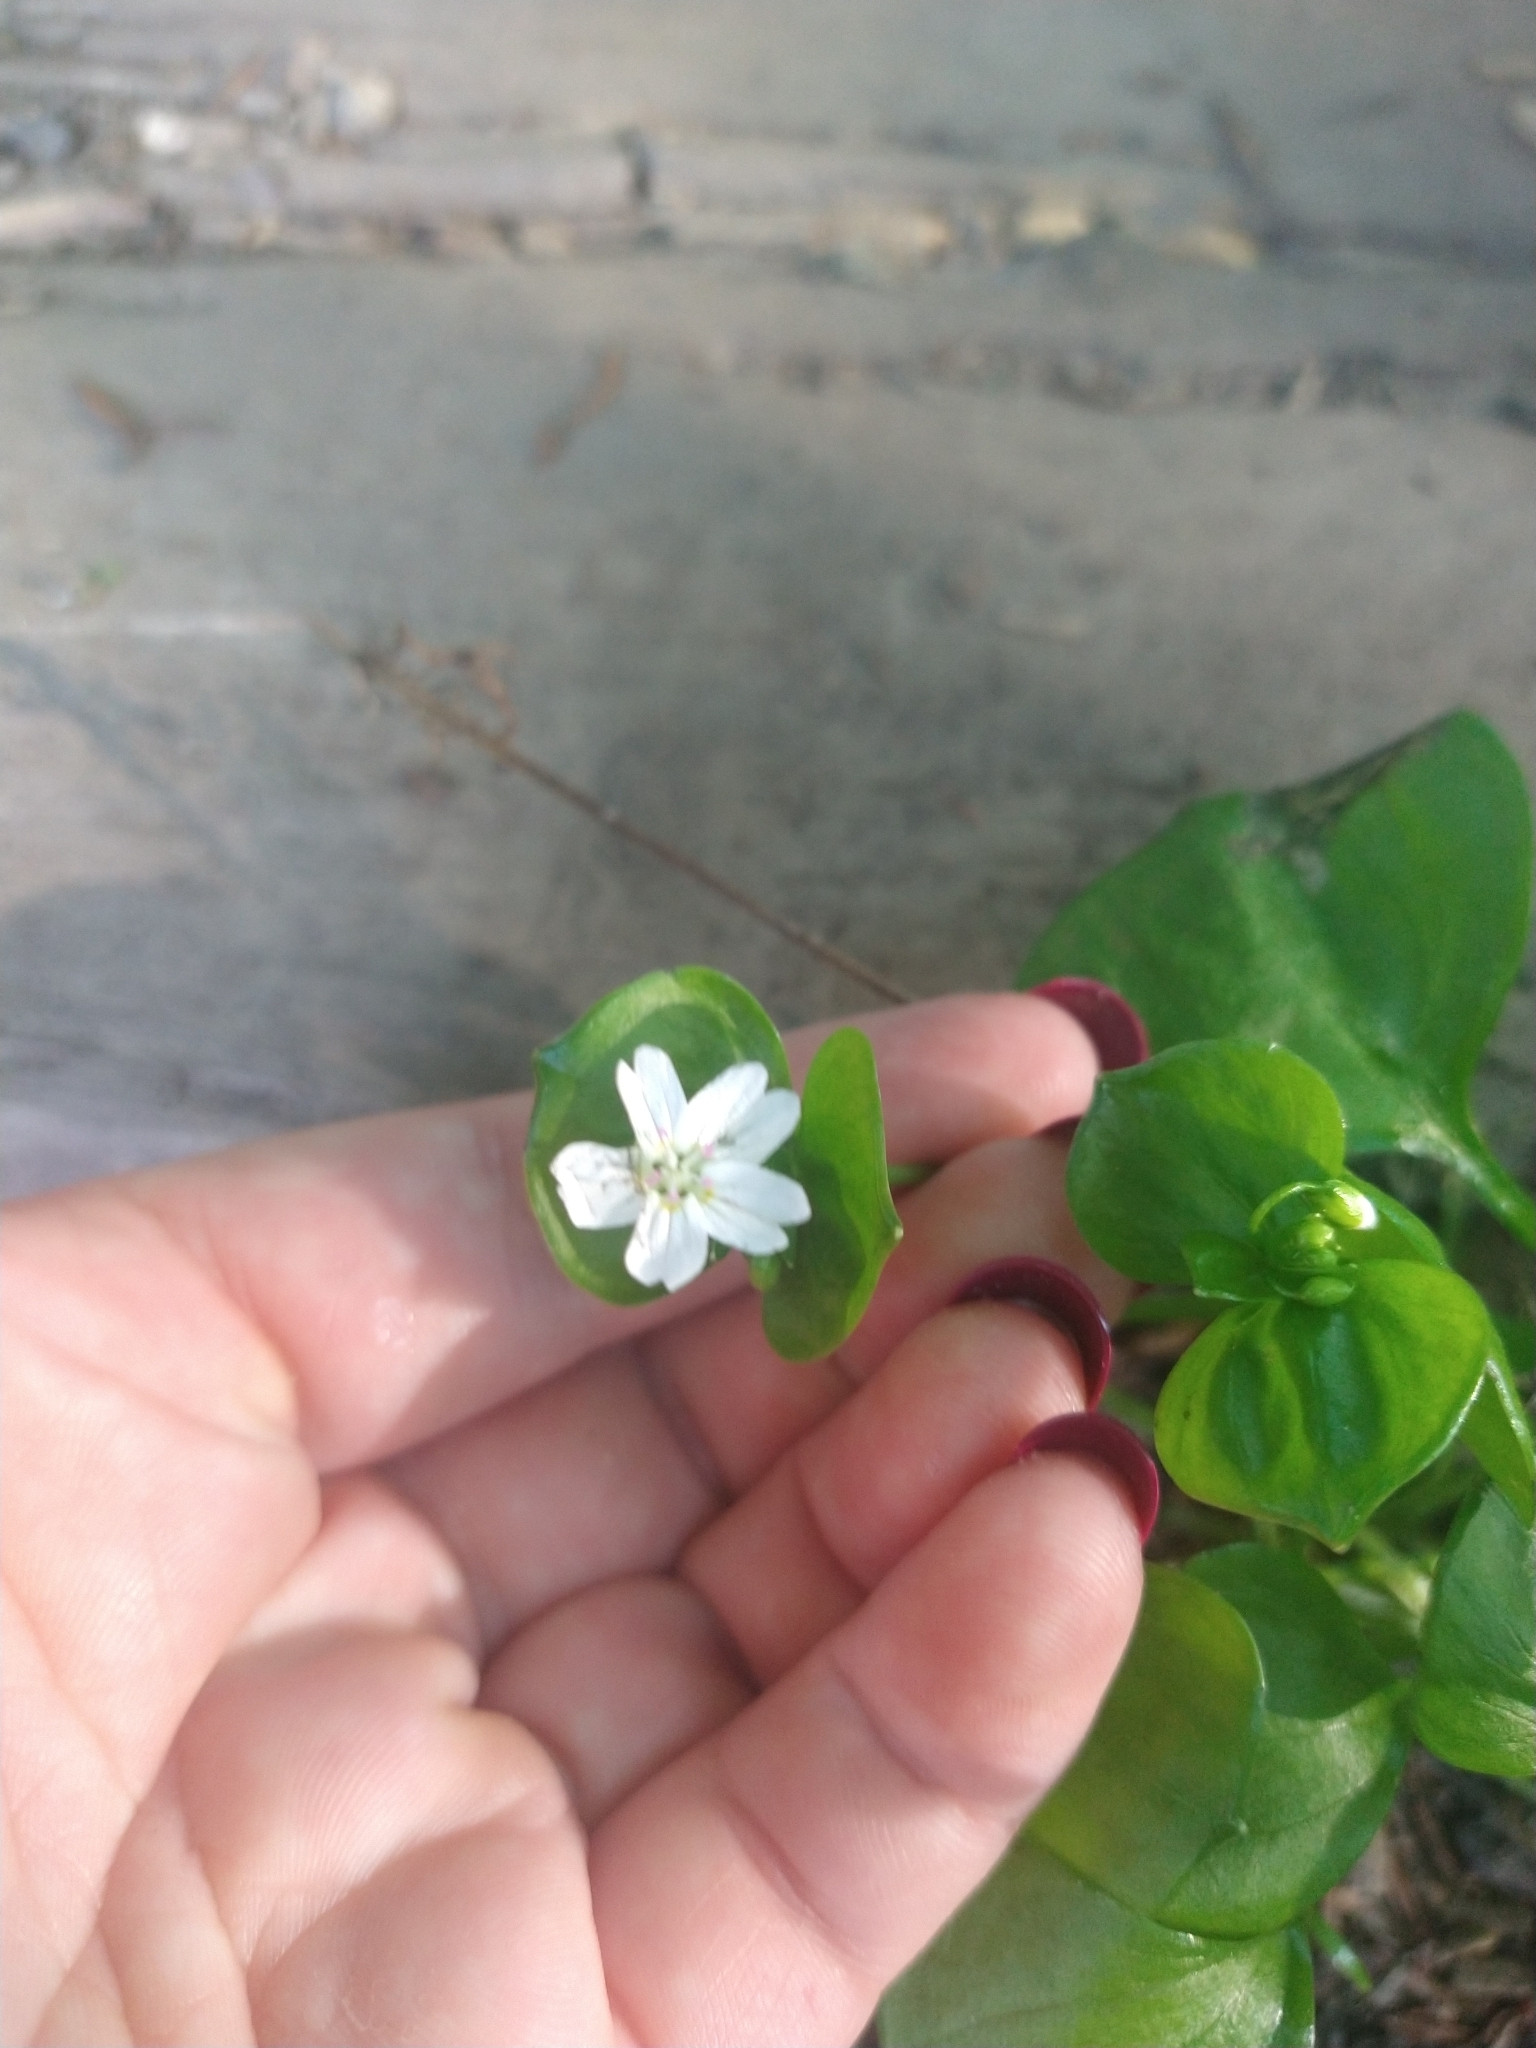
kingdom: Plantae
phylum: Tracheophyta
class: Magnoliopsida
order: Caryophyllales
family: Montiaceae
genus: Claytonia
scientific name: Claytonia sibirica
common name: Pink purslane
